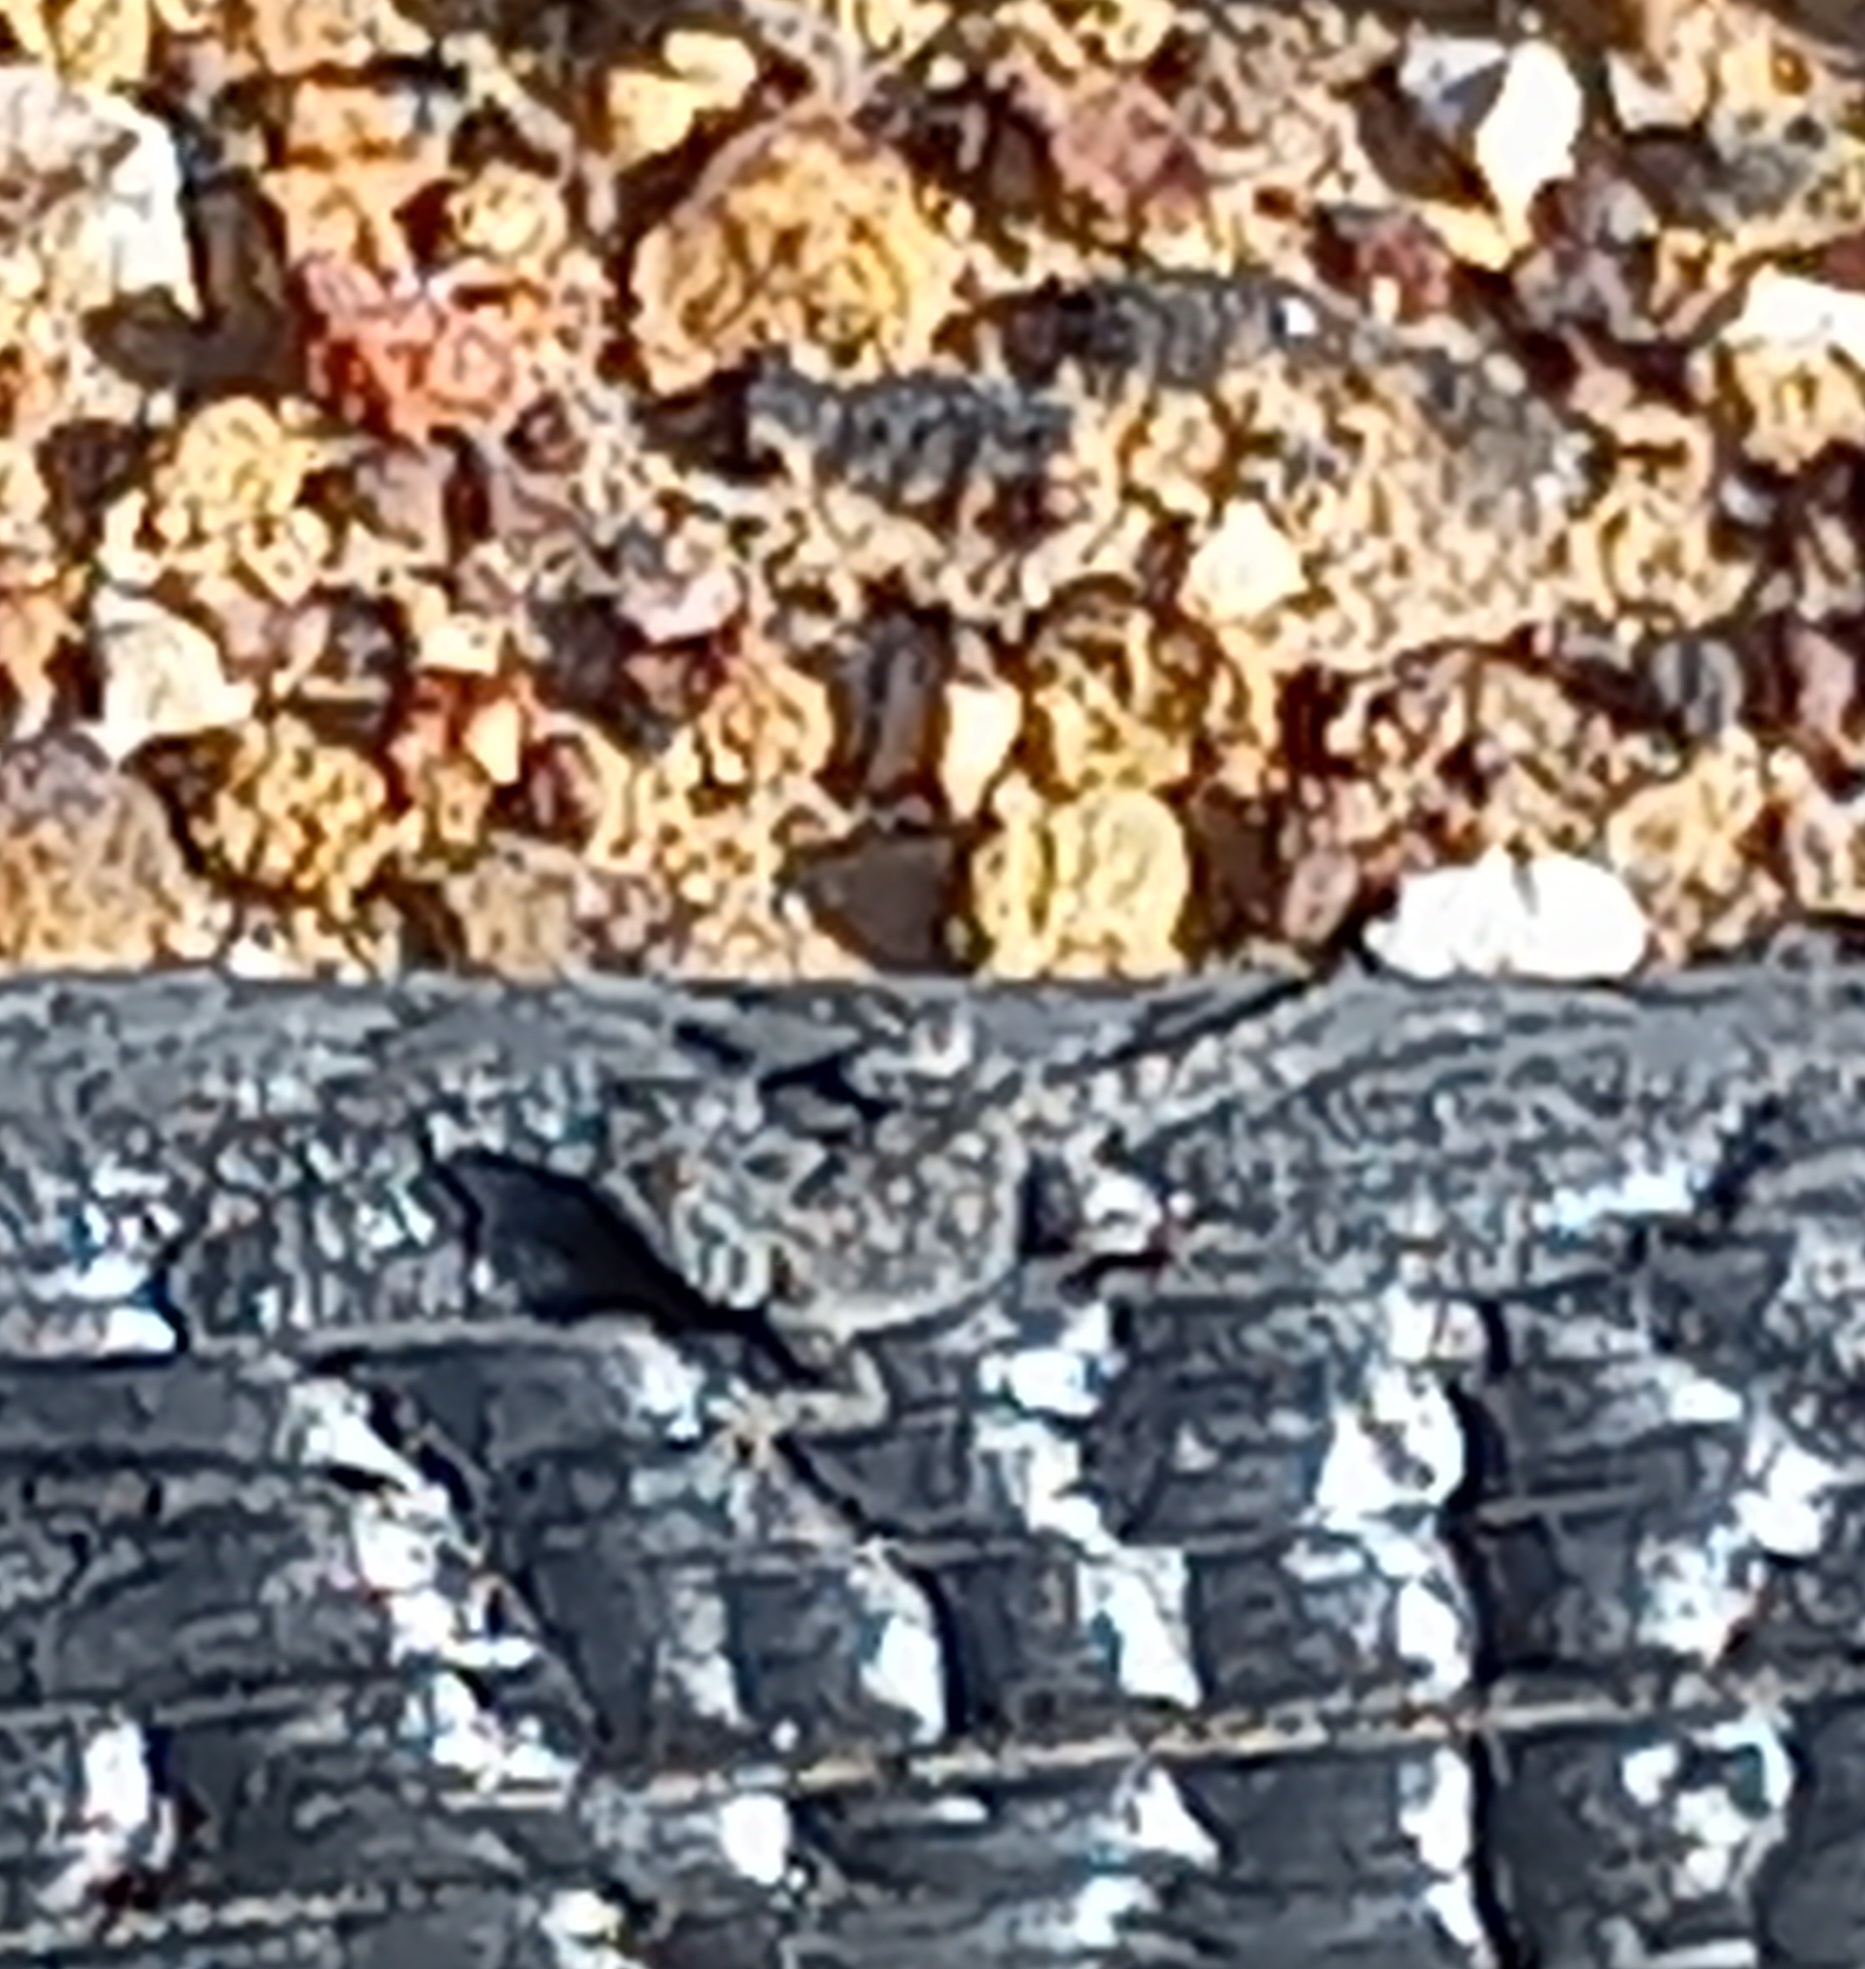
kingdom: Animalia
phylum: Chordata
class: Squamata
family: Agamidae
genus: Agama
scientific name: Agama atra
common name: Southern african rock agama
